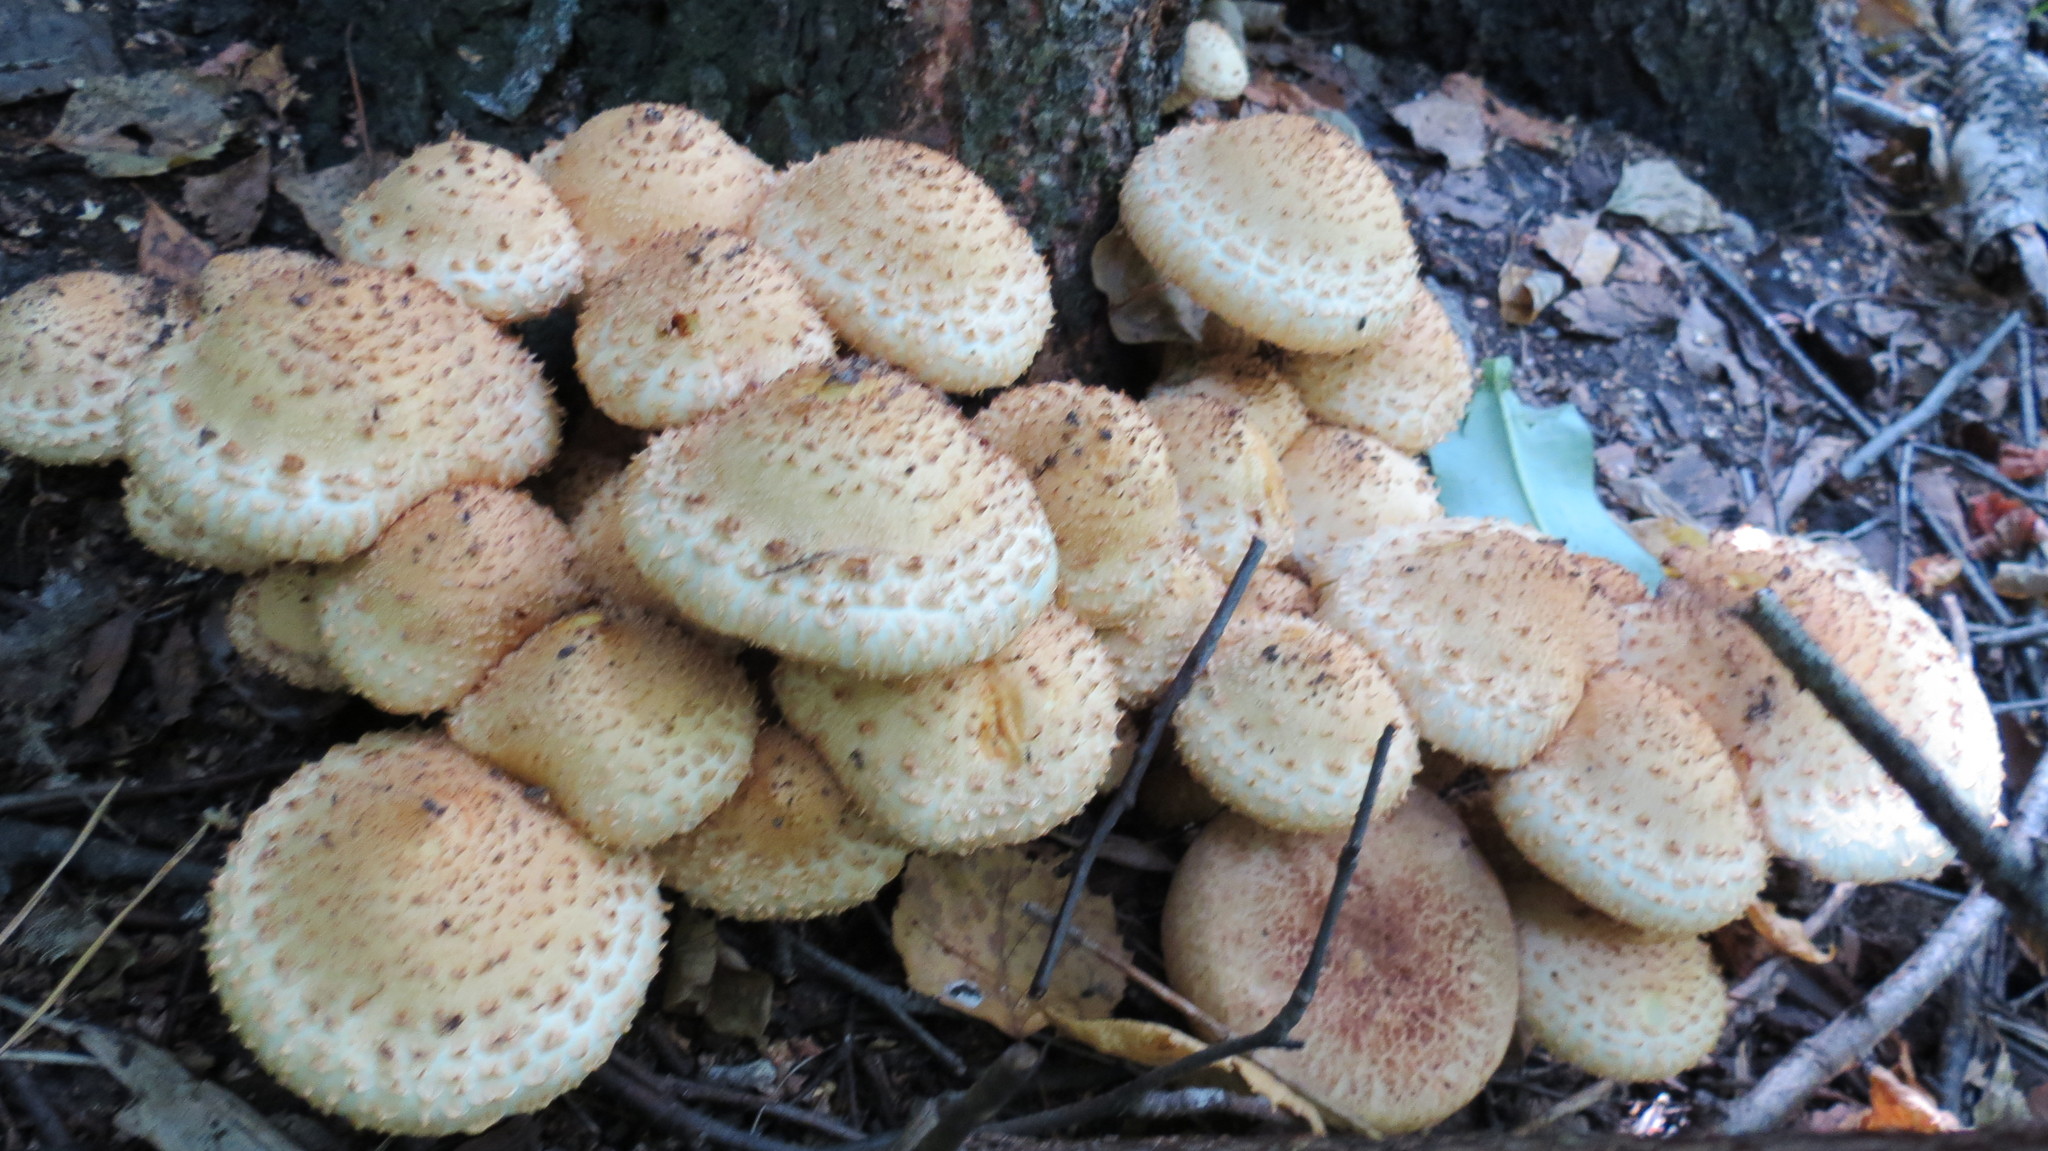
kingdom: Fungi
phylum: Basidiomycota
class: Agaricomycetes
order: Agaricales
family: Strophariaceae
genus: Pholiota
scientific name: Pholiota squarrosa
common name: Shaggy pholiota
